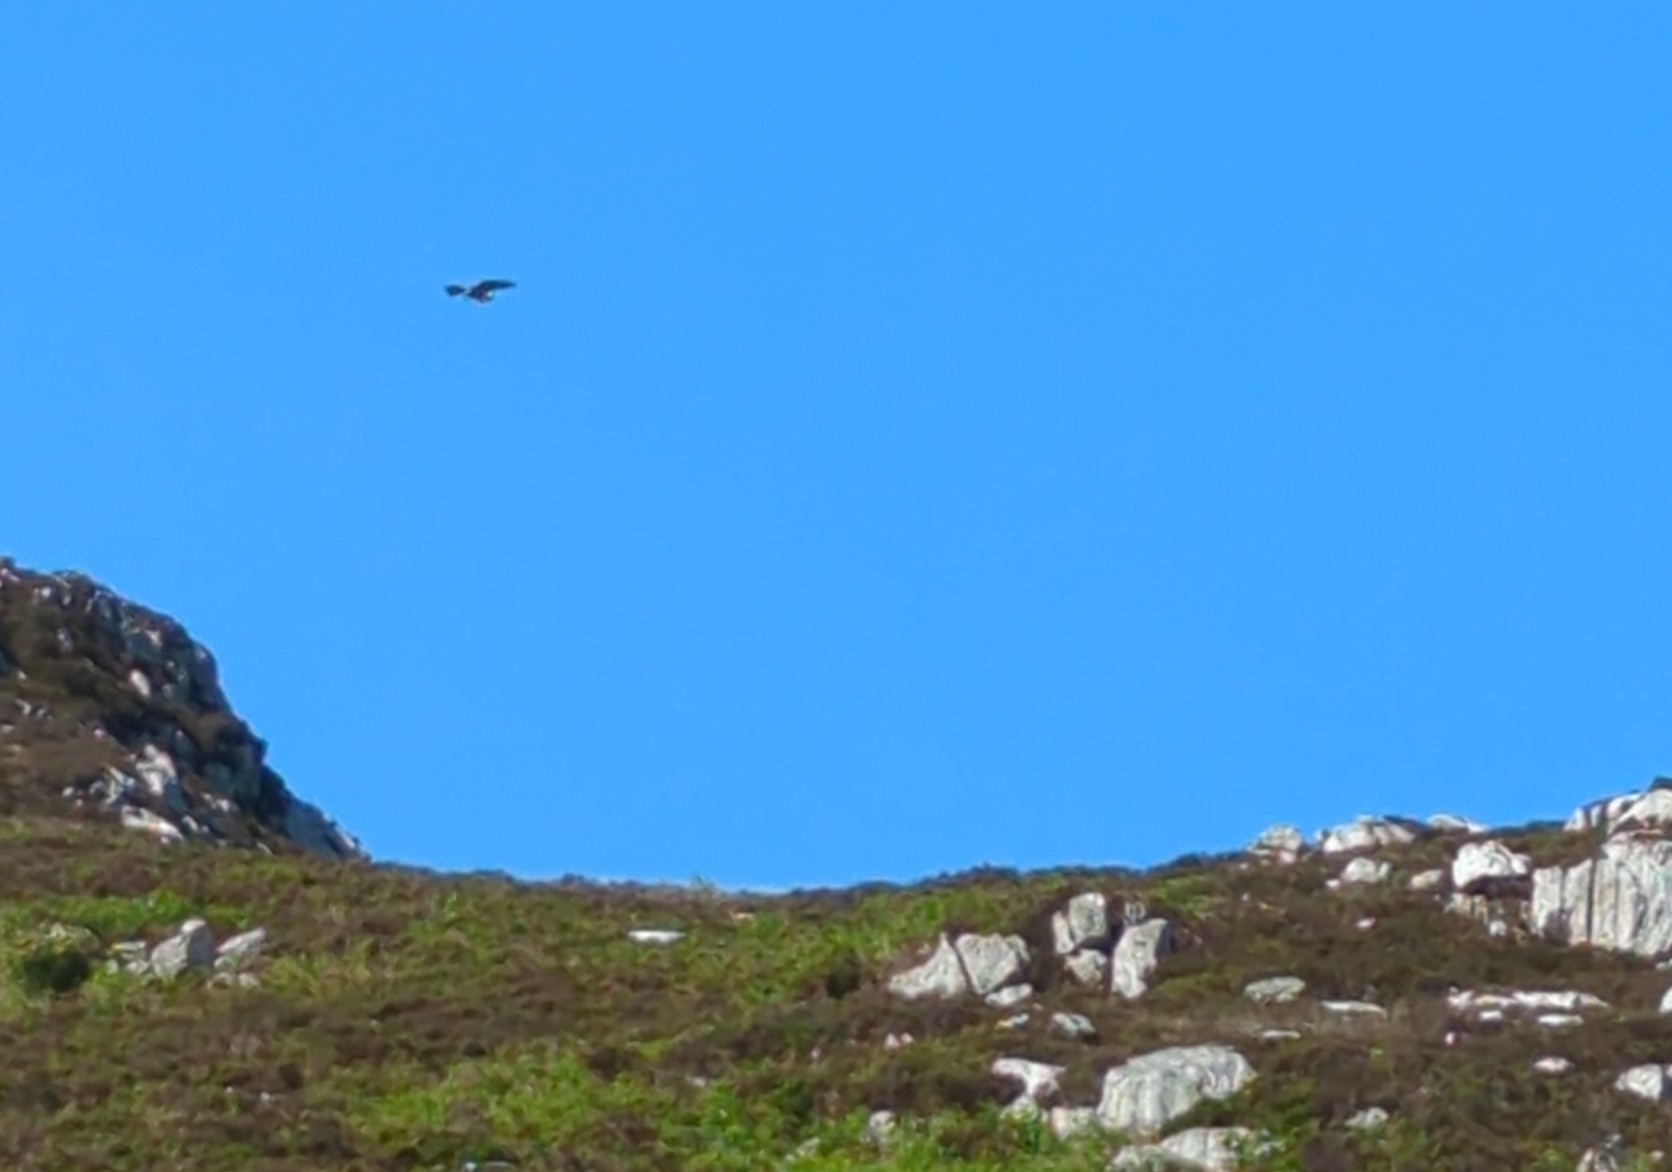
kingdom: Animalia
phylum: Chordata
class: Aves
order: Passeriformes
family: Corvidae
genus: Pyrrhocorax
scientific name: Pyrrhocorax pyrrhocorax
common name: Red-billed chough
